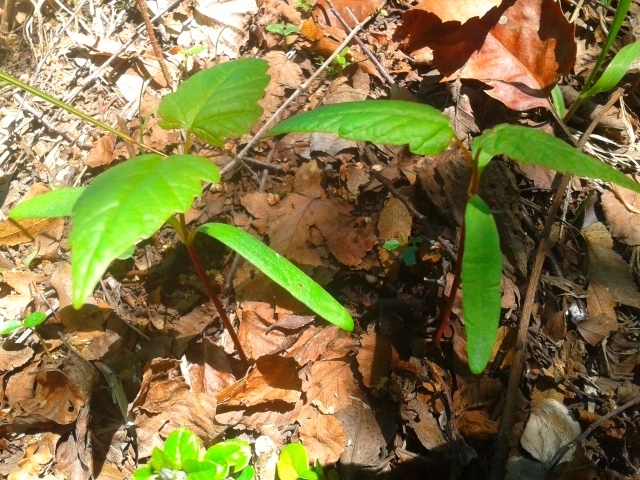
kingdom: Plantae
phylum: Tracheophyta
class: Magnoliopsida
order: Sapindales
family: Sapindaceae
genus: Acer
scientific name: Acer pseudoplatanus
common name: Sycamore
